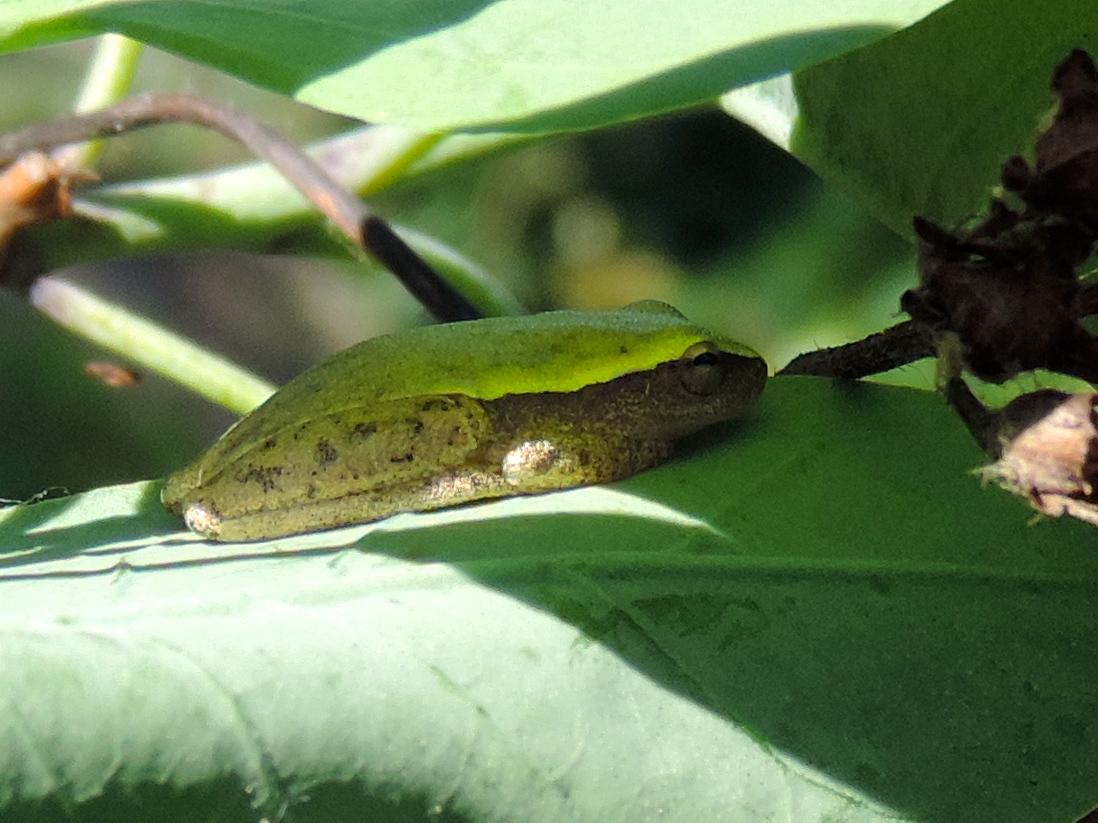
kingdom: Animalia
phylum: Chordata
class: Amphibia
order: Anura
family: Hylidae
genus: Tlalocohyla
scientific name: Tlalocohyla smithii
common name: Dwarf mexican treefrog
